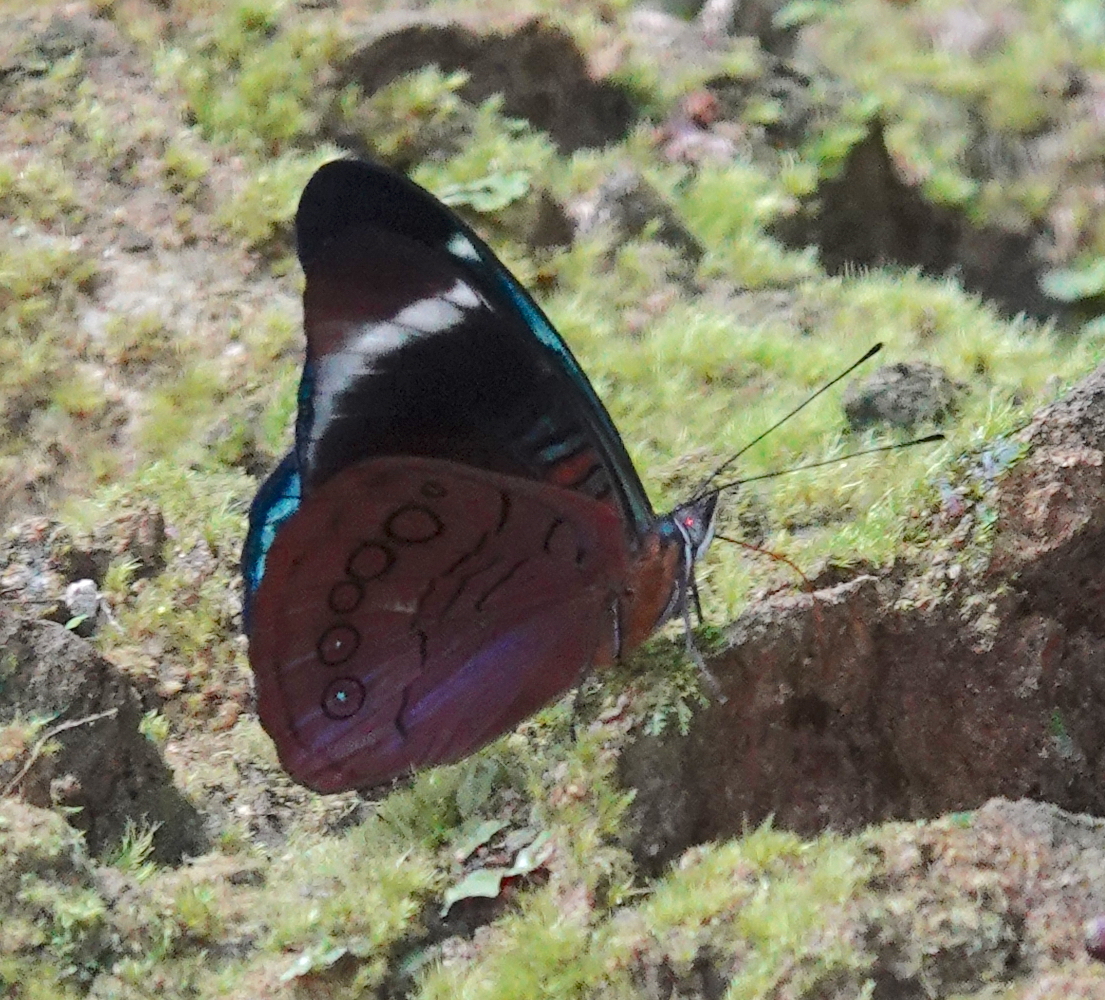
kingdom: Animalia
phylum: Arthropoda
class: Insecta
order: Lepidoptera
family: Nymphalidae
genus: Panacea
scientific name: Panacea procilla
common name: Procilla beauty
